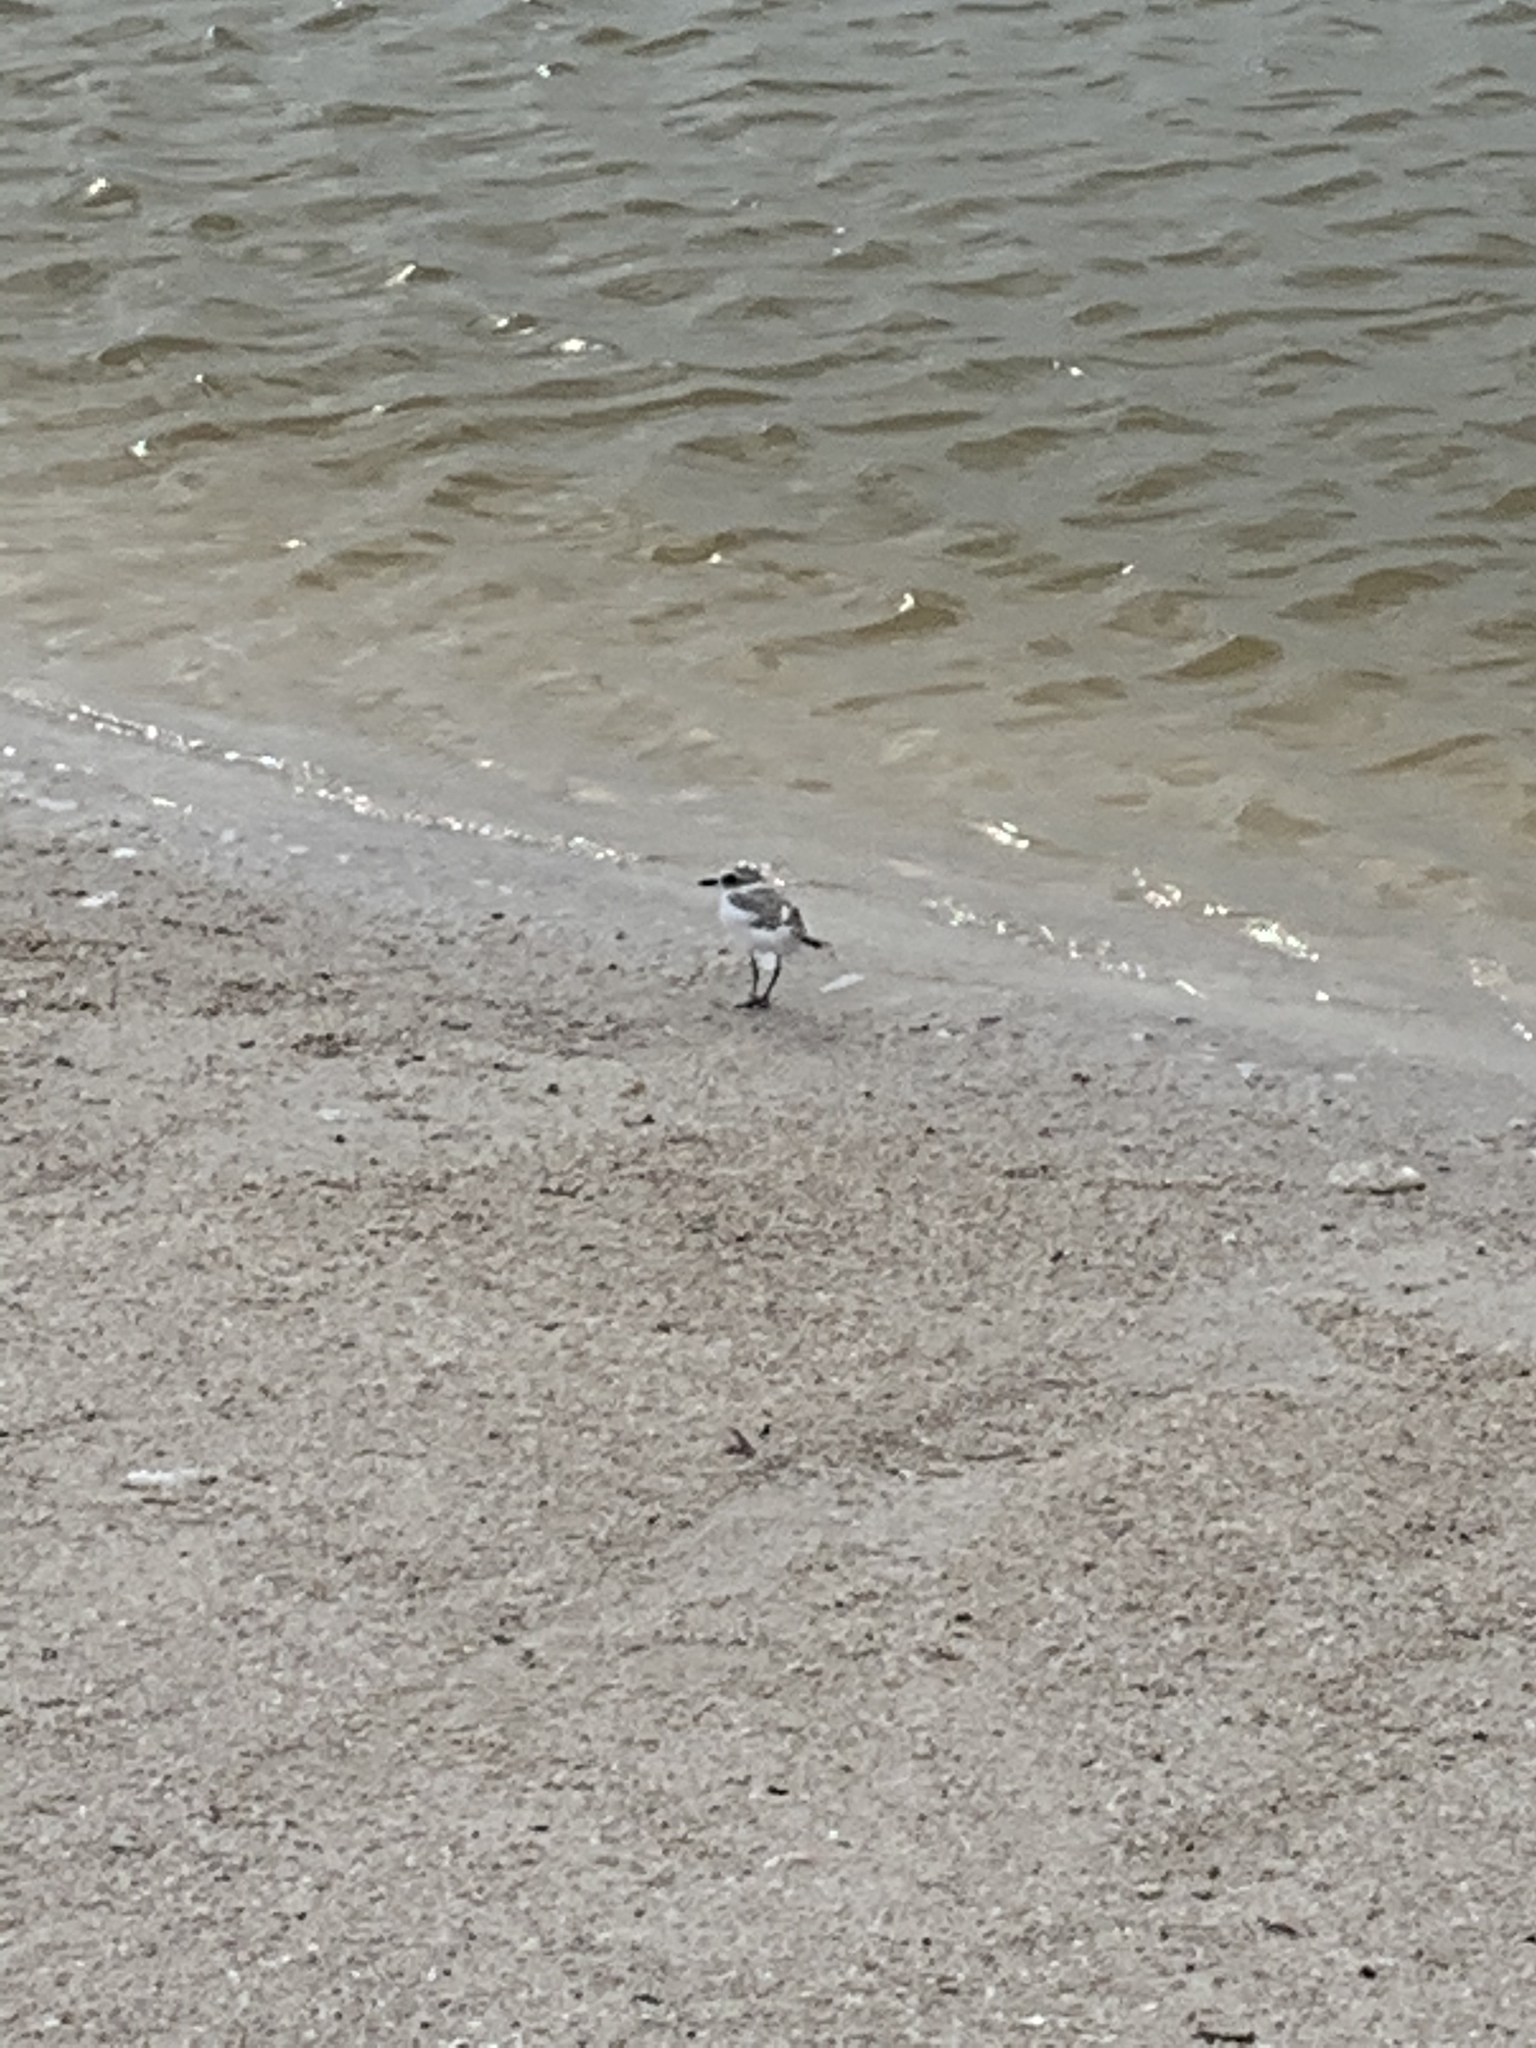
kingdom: Animalia
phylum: Chordata
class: Aves
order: Charadriiformes
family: Charadriidae
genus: Anarhynchus
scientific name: Anarhynchus
